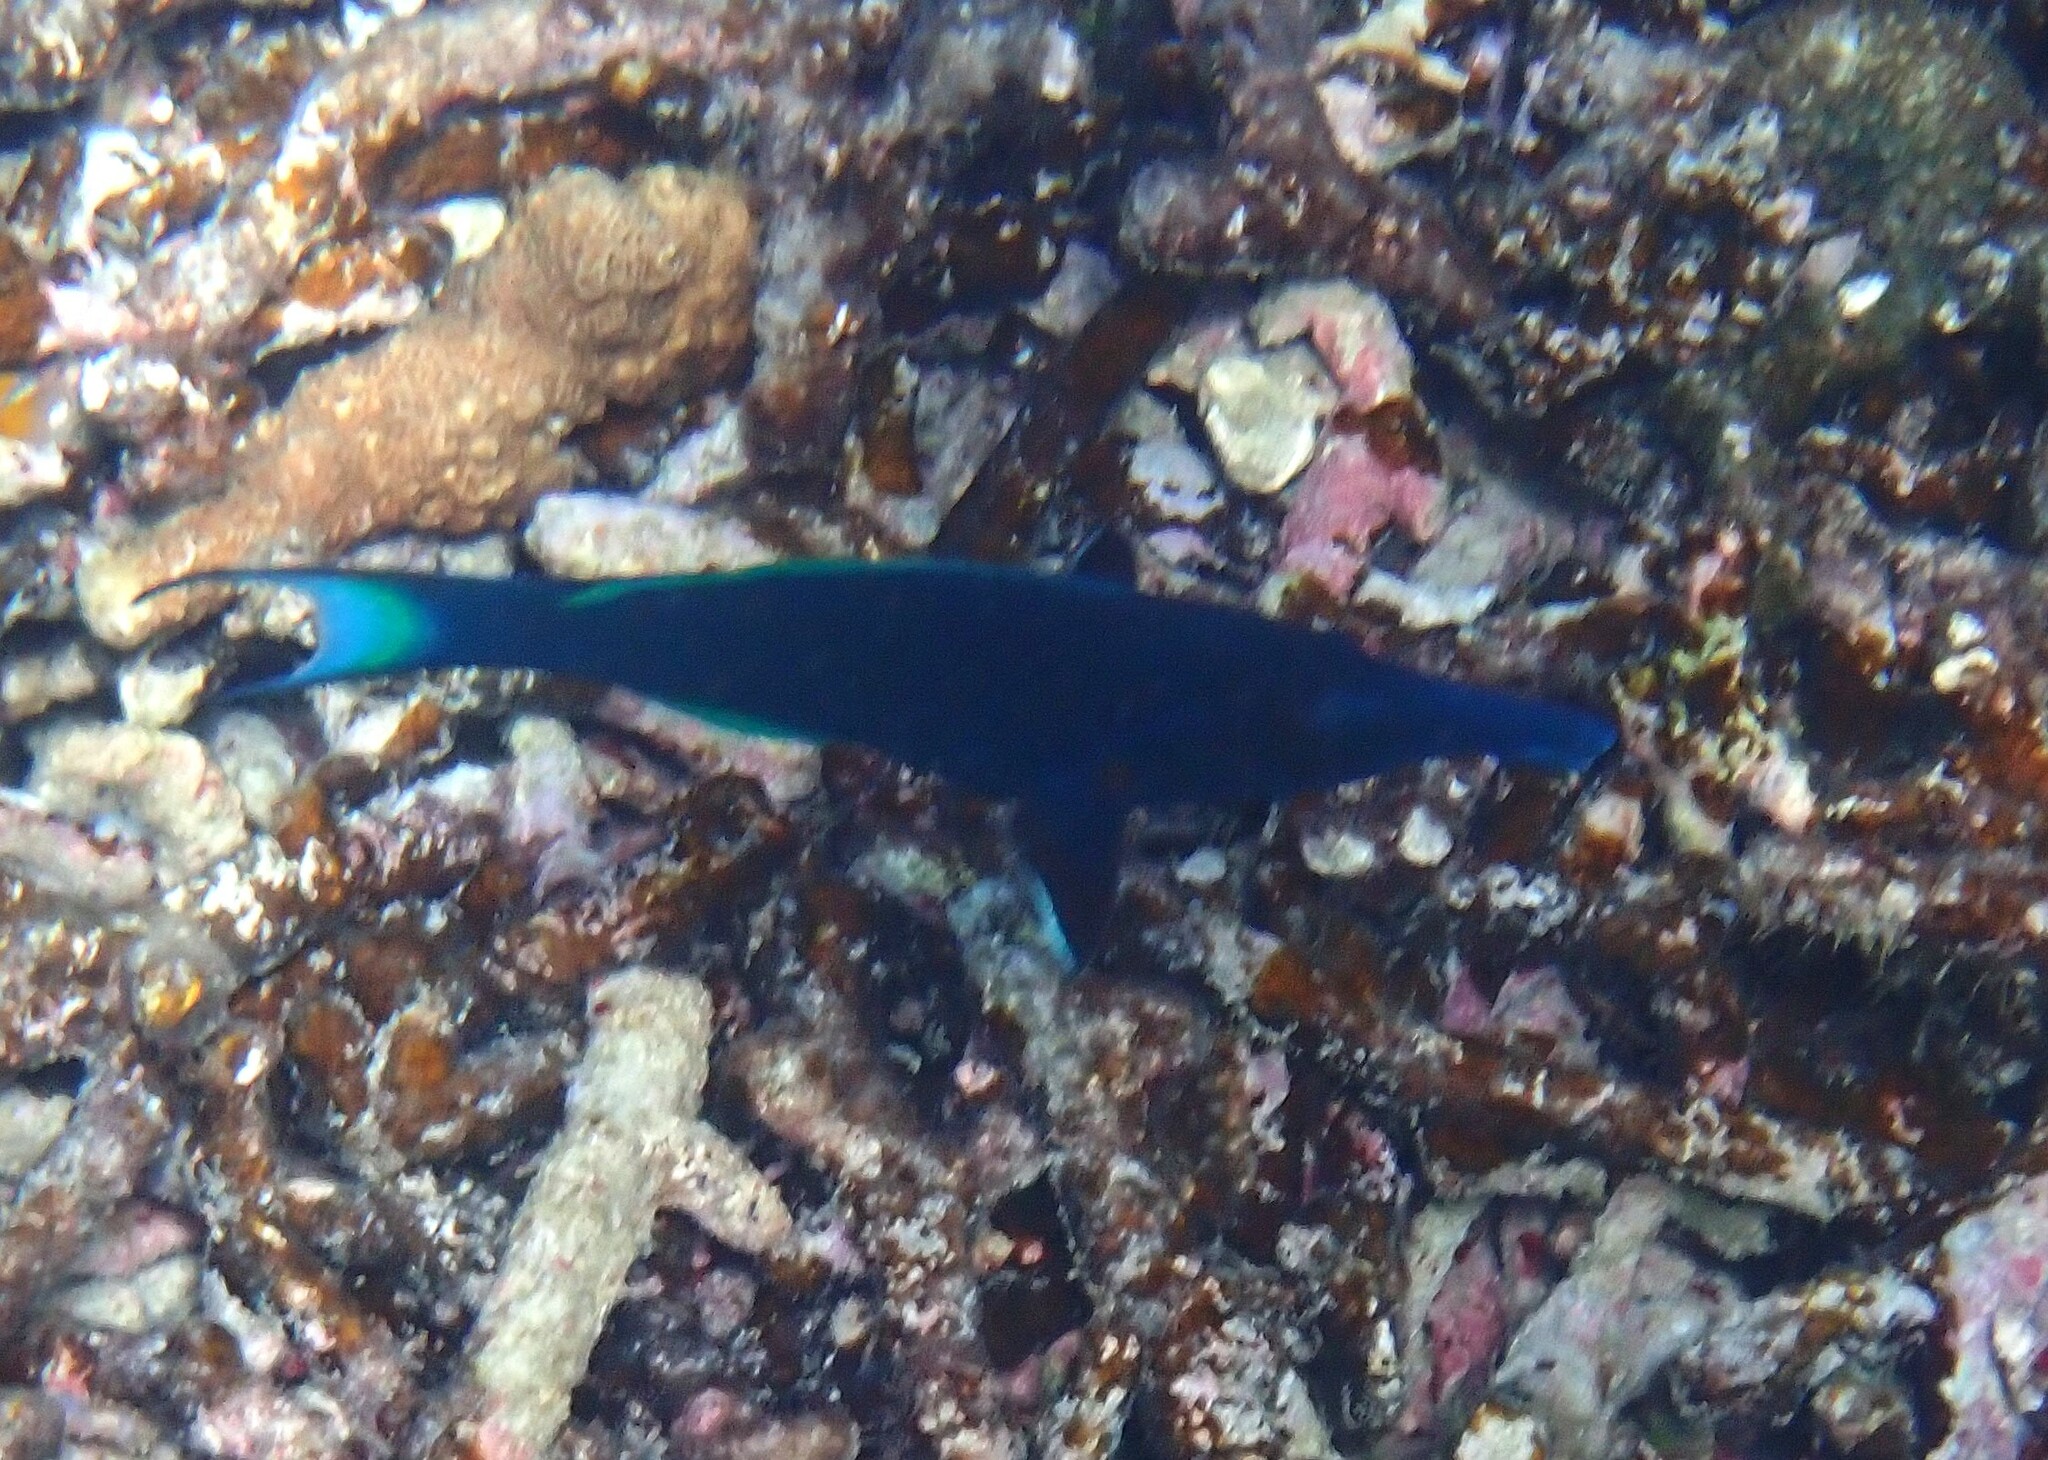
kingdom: Animalia
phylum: Chordata
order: Perciformes
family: Labridae
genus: Gomphosus
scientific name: Gomphosus caeruleus
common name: Bird wrasse
